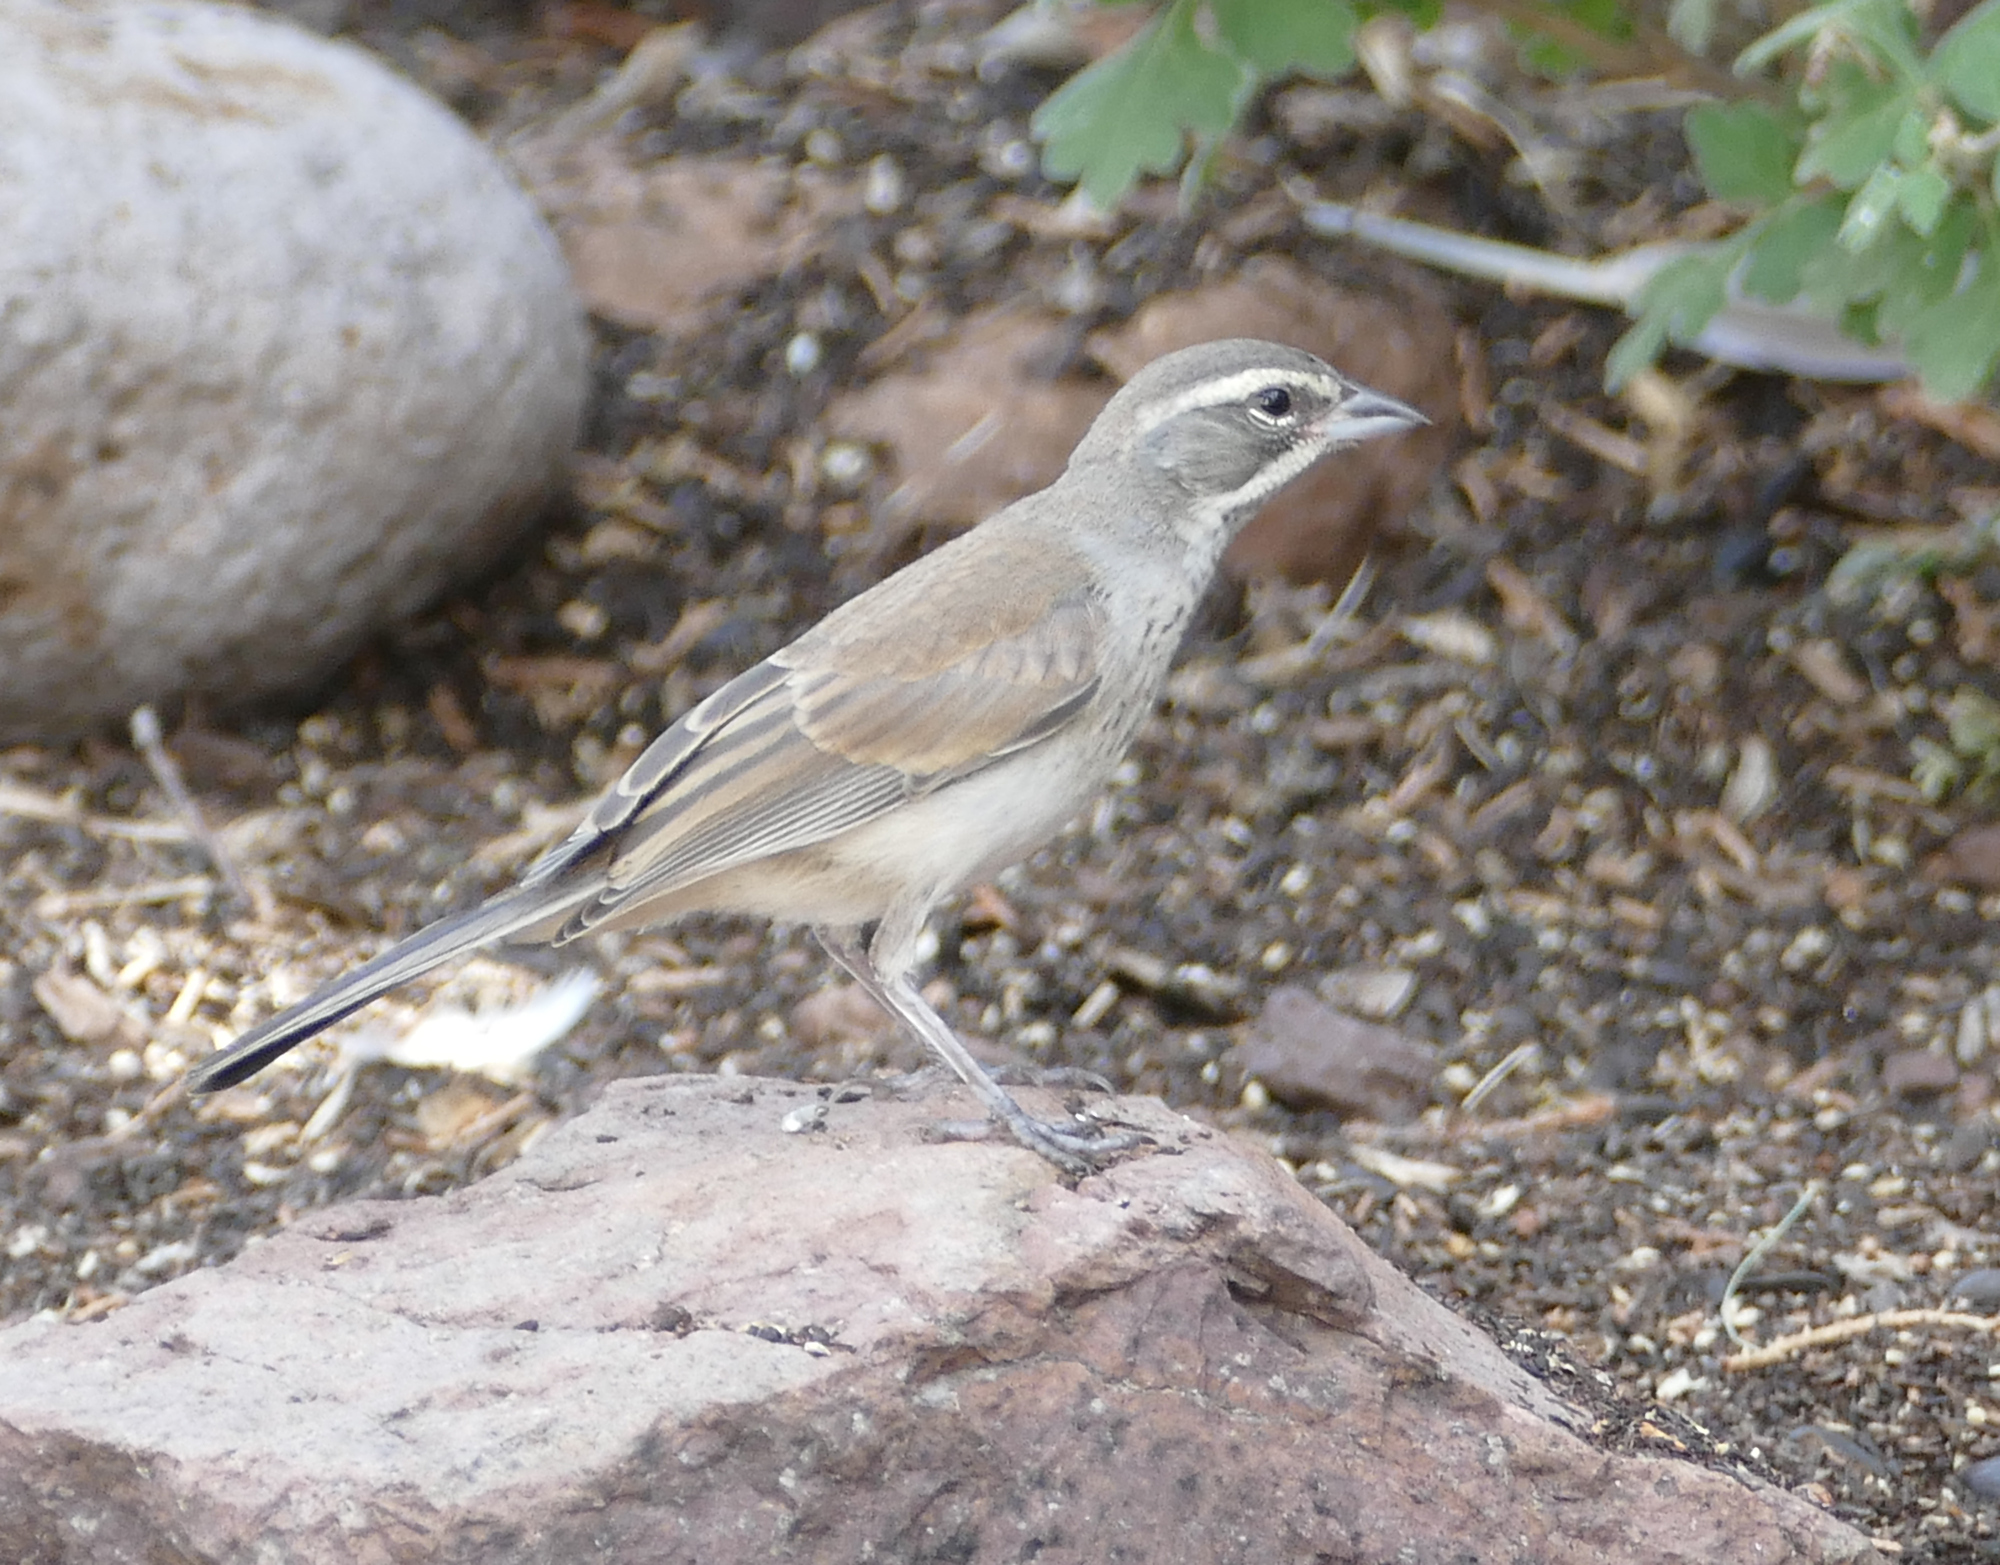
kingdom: Animalia
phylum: Chordata
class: Aves
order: Passeriformes
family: Passerellidae
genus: Amphispiza
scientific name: Amphispiza bilineata
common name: Black-throated sparrow
